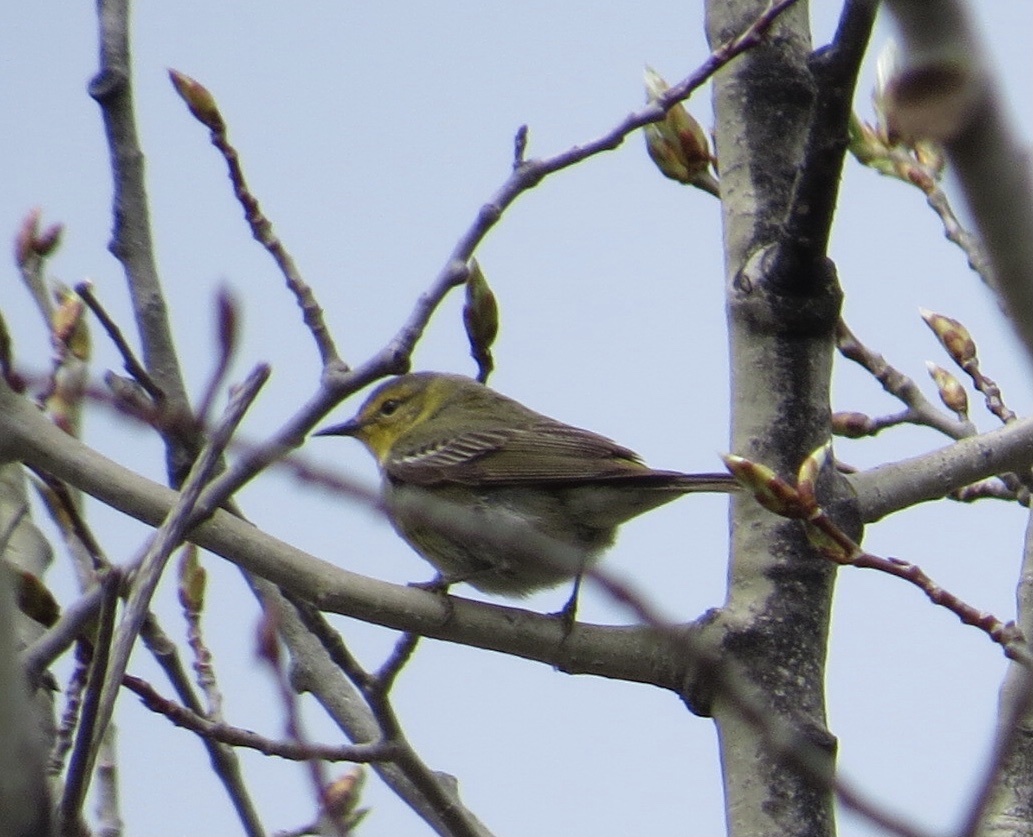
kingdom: Animalia
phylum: Chordata
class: Aves
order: Passeriformes
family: Parulidae
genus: Setophaga
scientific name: Setophaga tigrina
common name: Cape may warbler
